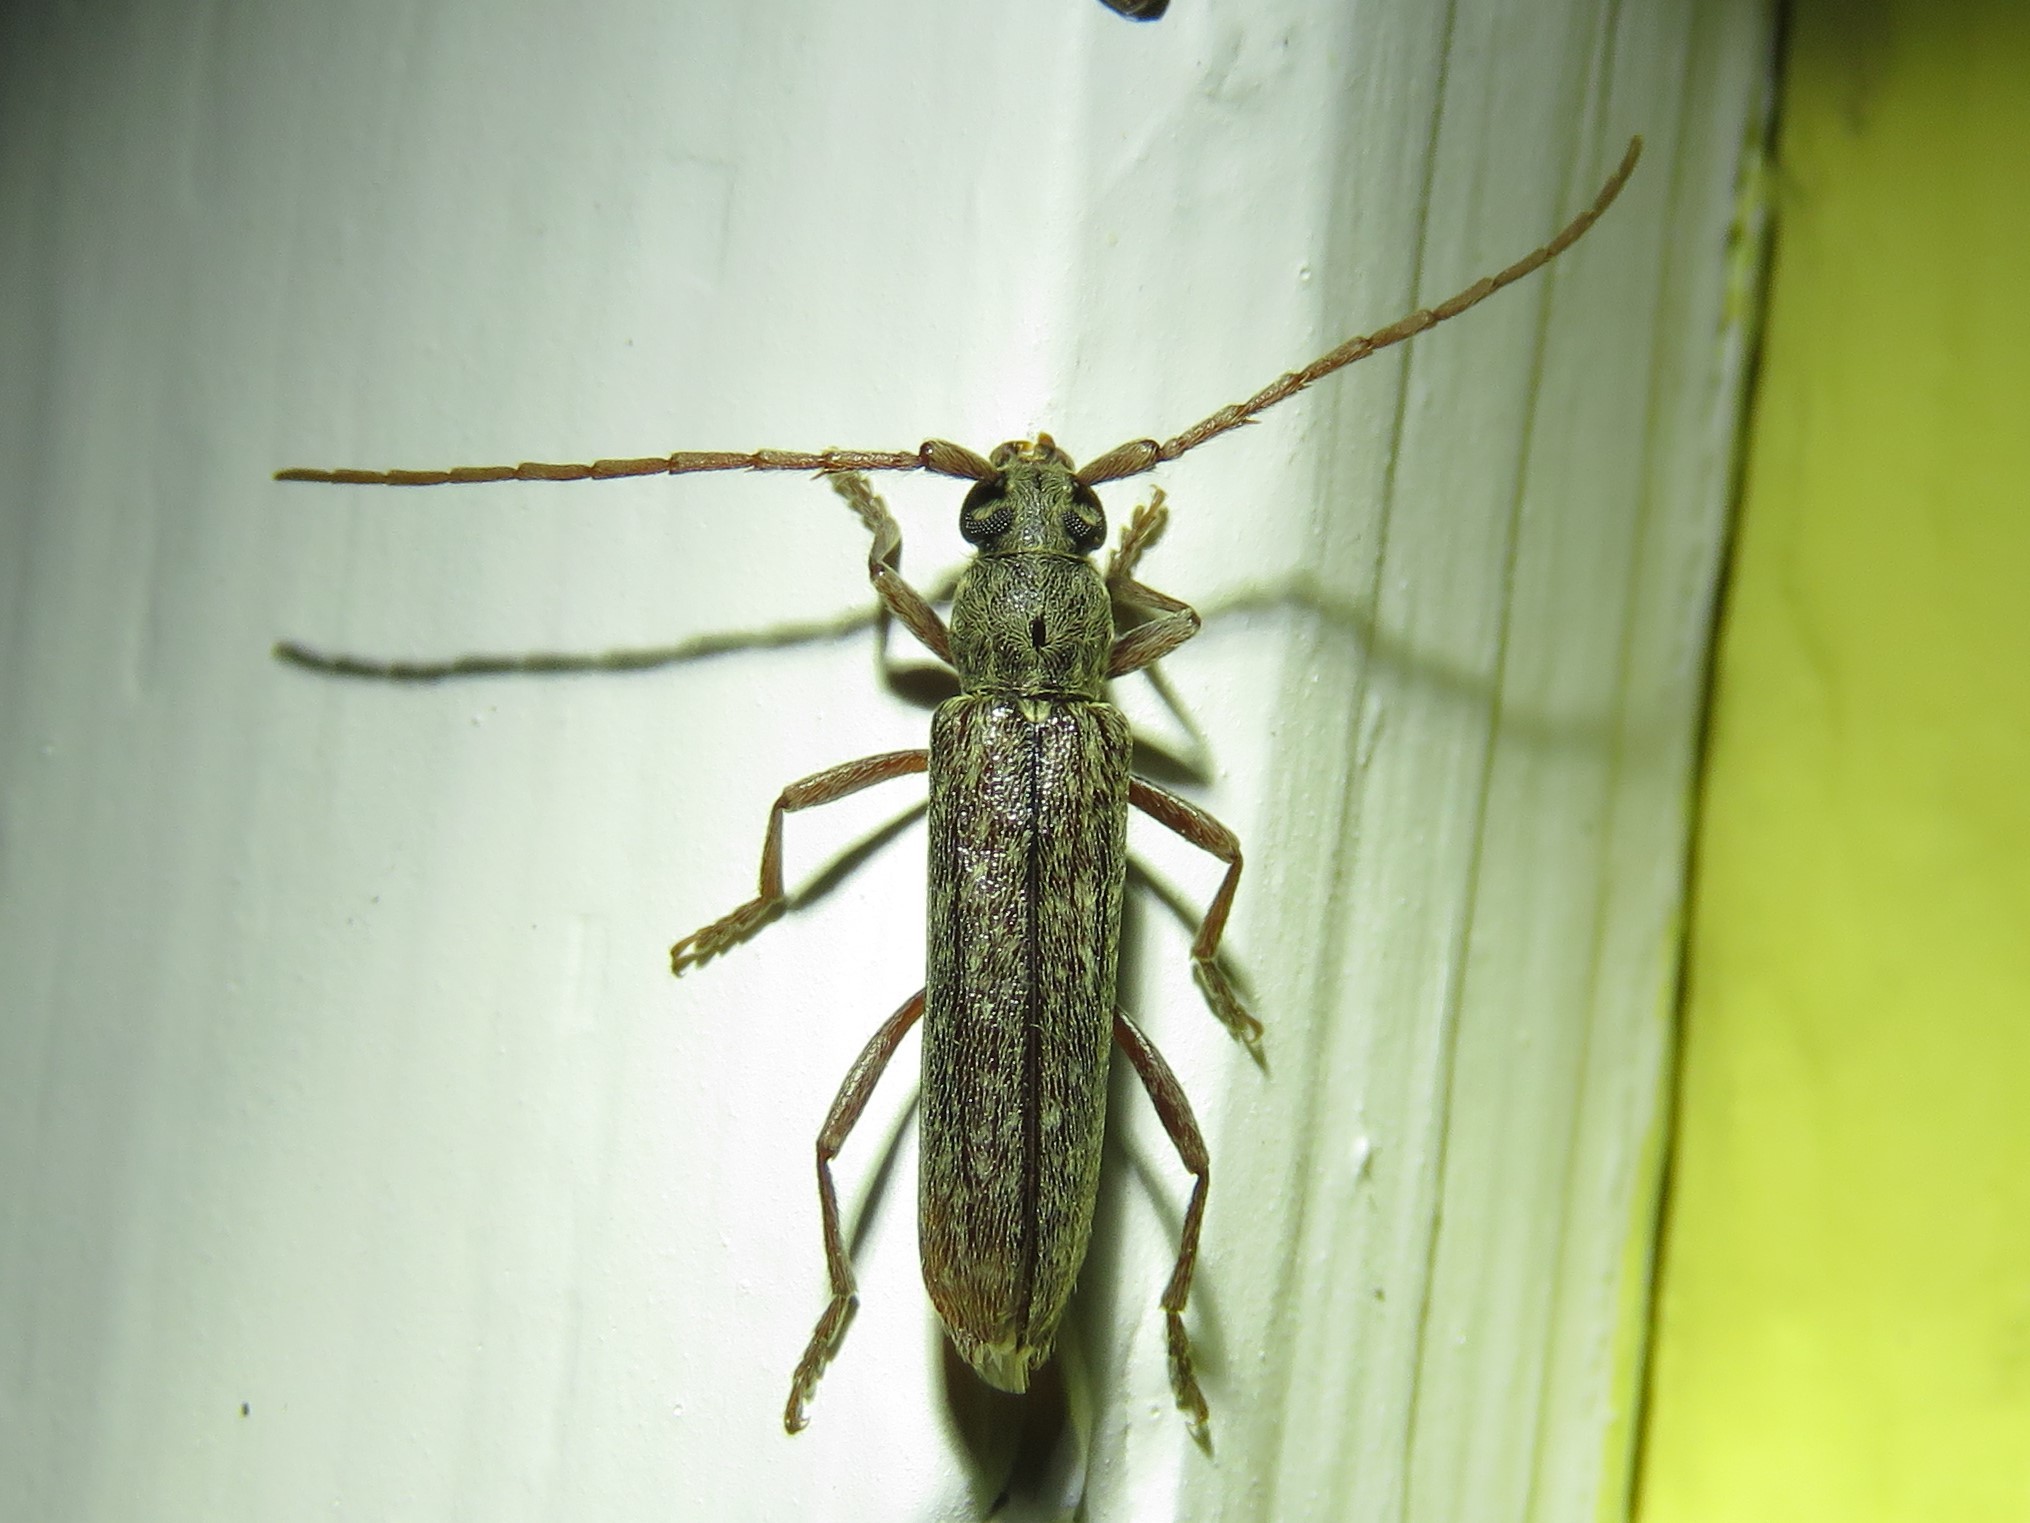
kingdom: Animalia
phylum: Arthropoda
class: Insecta
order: Coleoptera
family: Cerambycidae
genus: Anelaphus
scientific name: Anelaphus villosus
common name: Twig pruner
